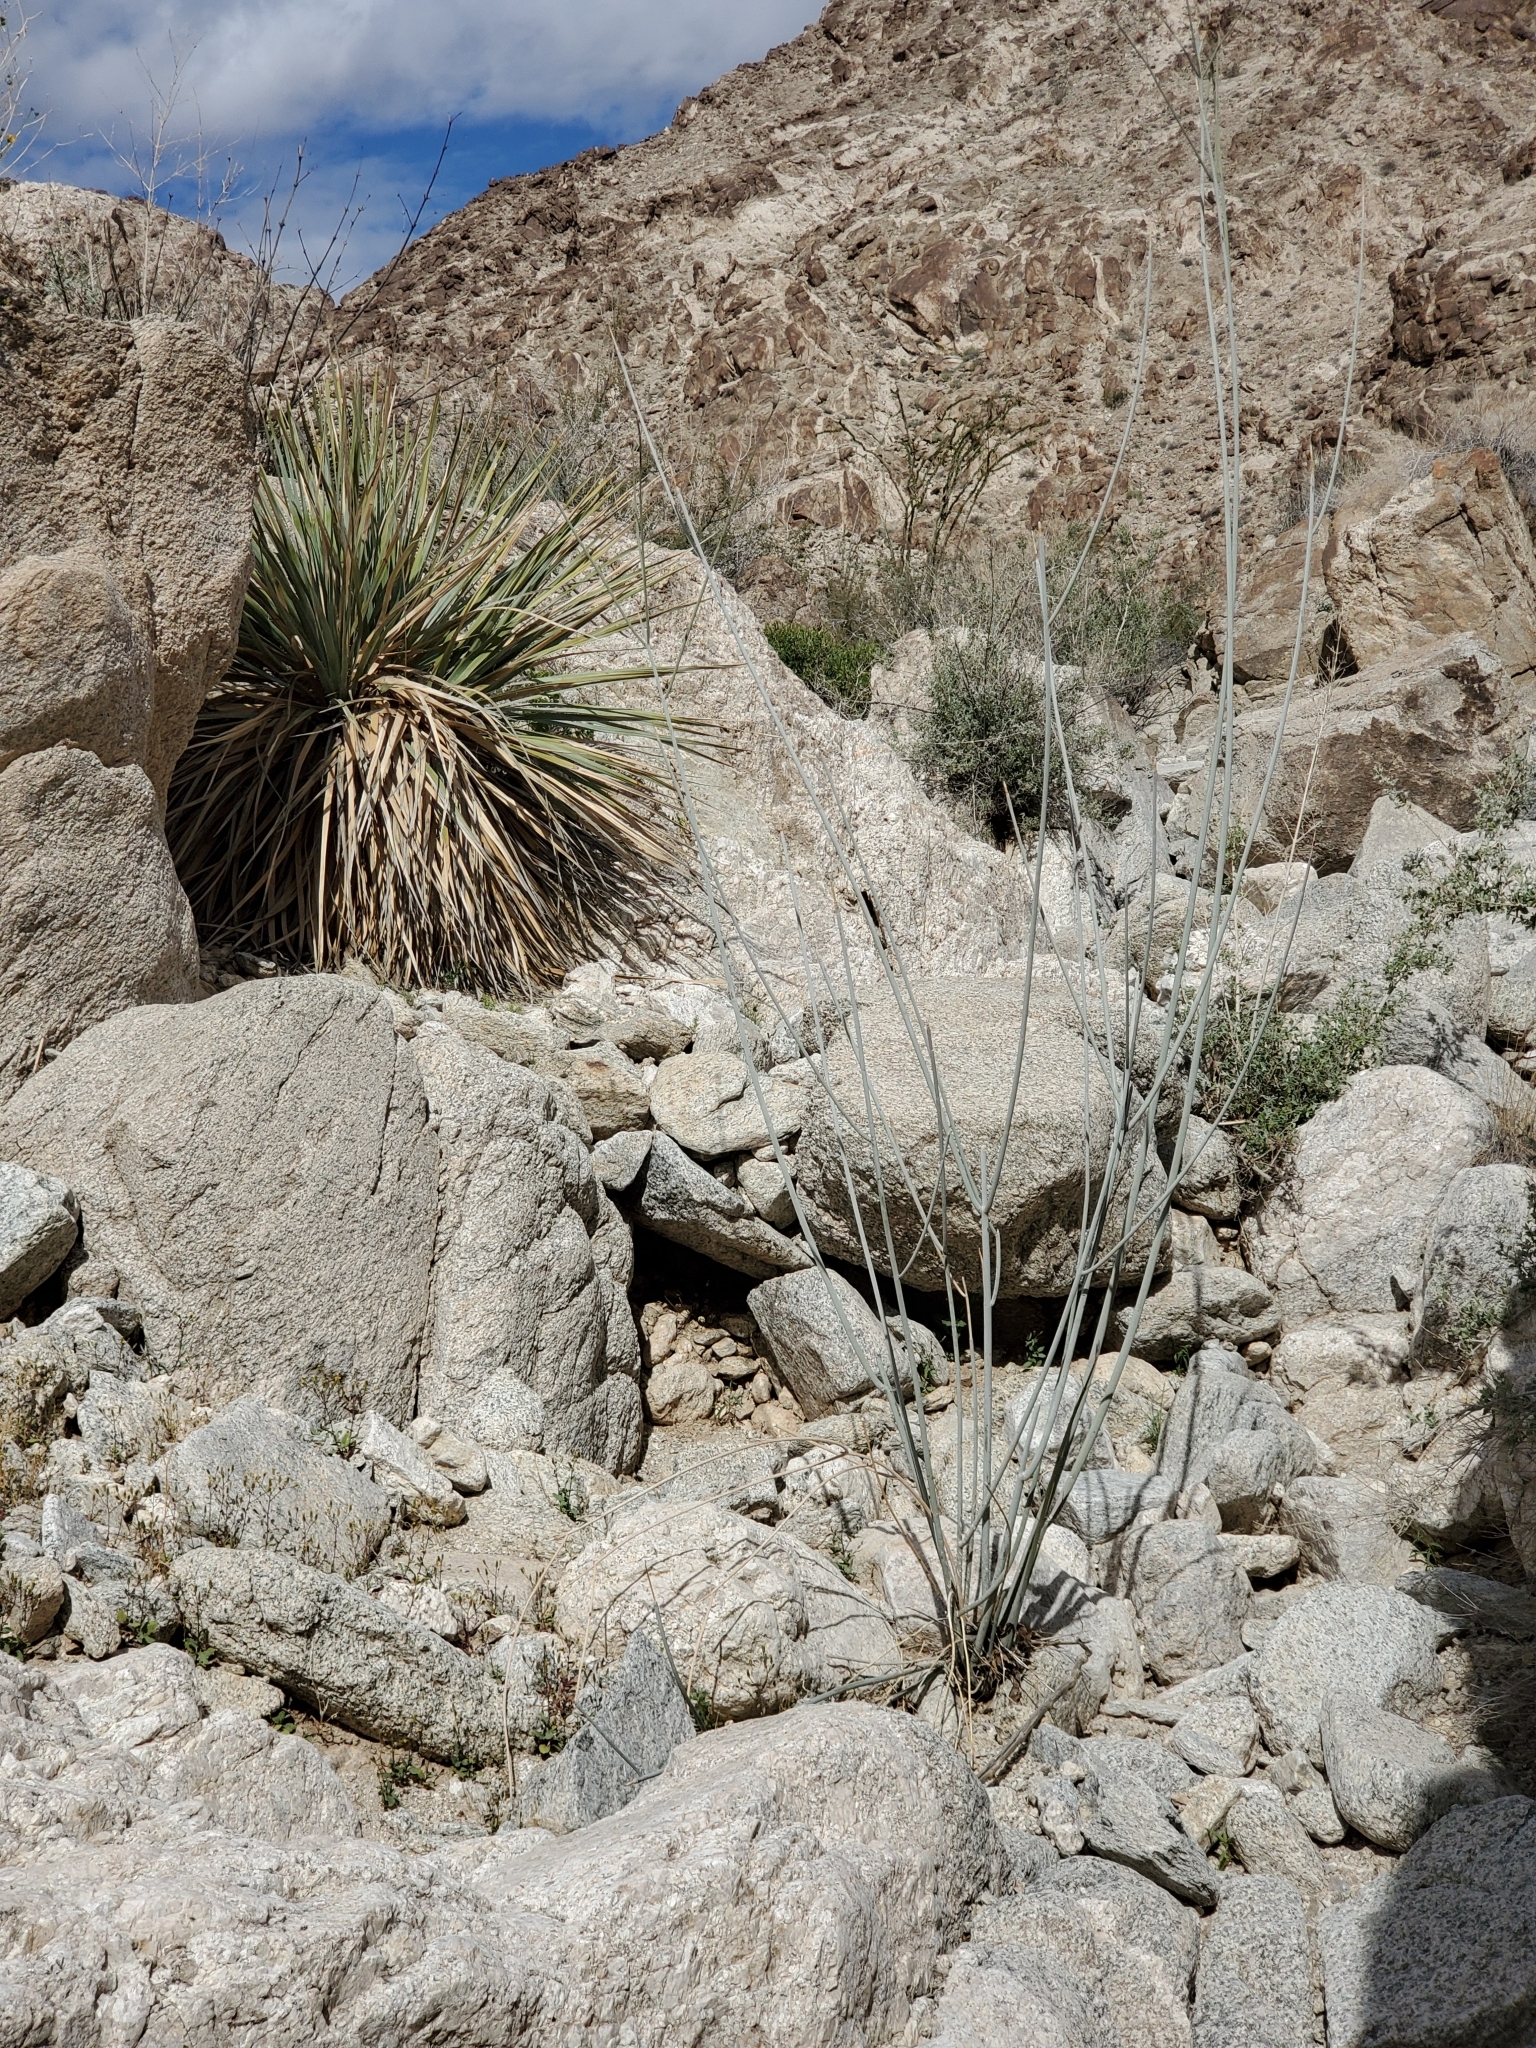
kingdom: Plantae
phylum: Tracheophyta
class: Magnoliopsida
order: Gentianales
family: Apocynaceae
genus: Asclepias
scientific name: Asclepias albicans
